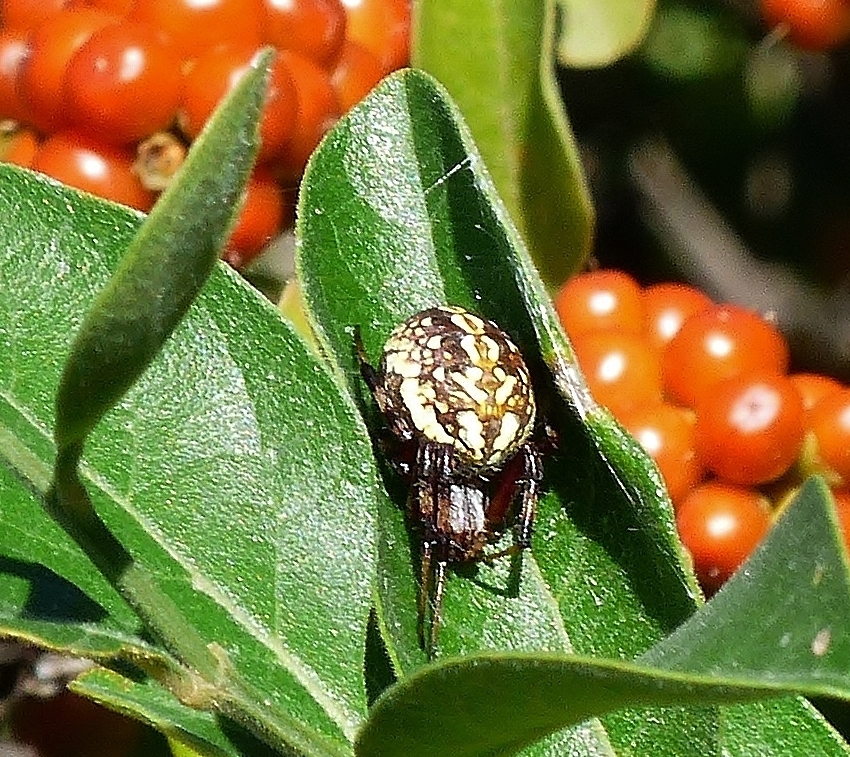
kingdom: Animalia
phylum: Arthropoda
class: Arachnida
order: Araneae
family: Araneidae
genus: Neoscona
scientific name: Neoscona oaxacensis
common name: Orb weavers
